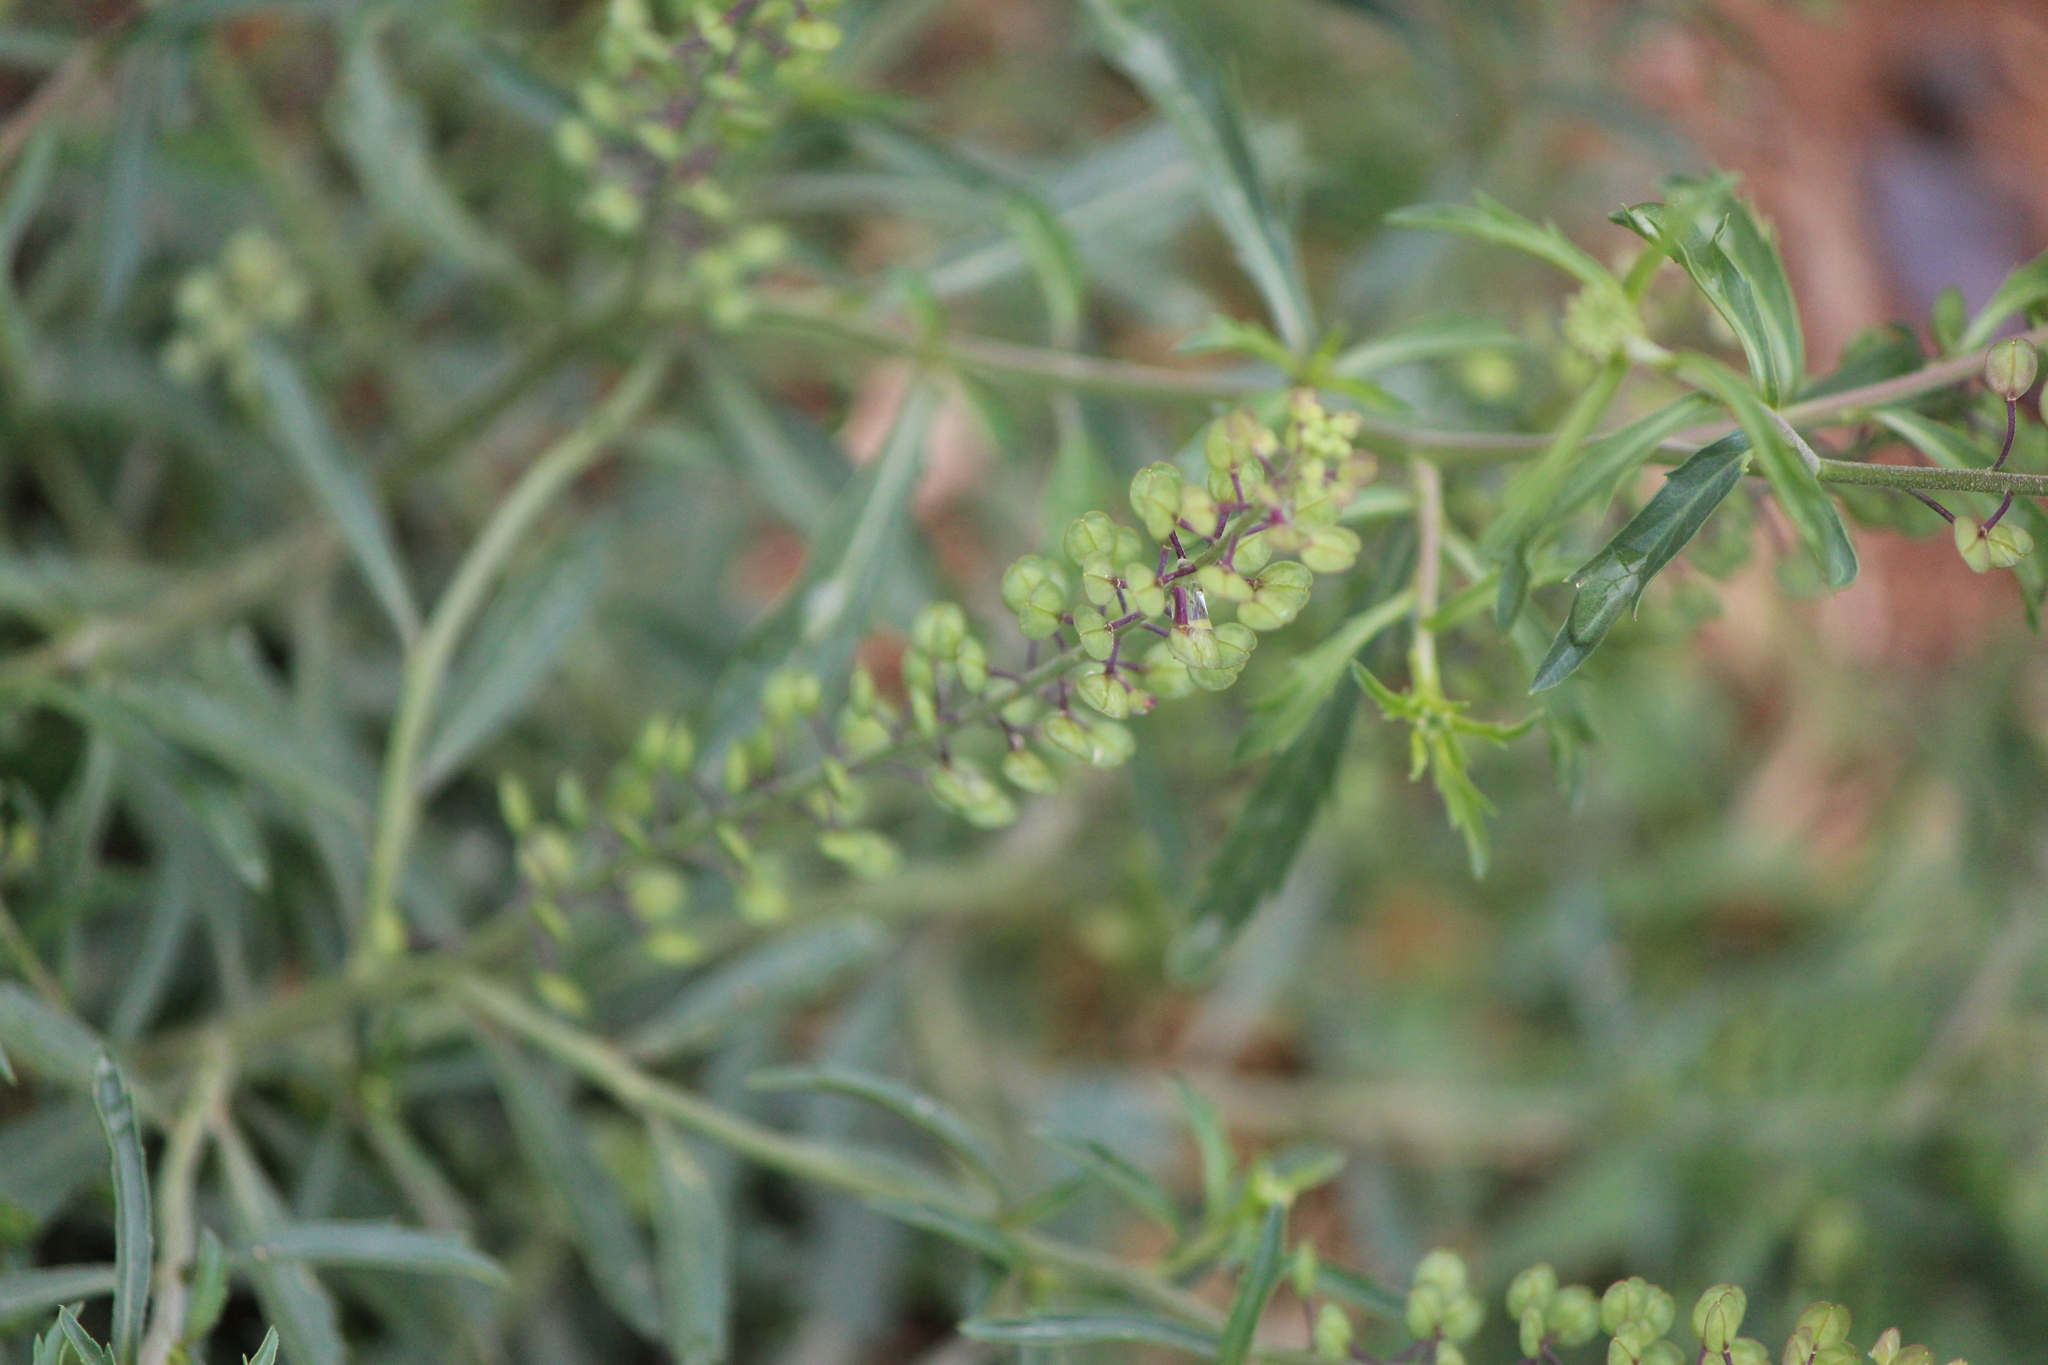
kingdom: Plantae
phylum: Tracheophyta
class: Magnoliopsida
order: Brassicales
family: Brassicaceae
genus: Lepidium
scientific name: Lepidium virginicum
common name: Least pepperwort
